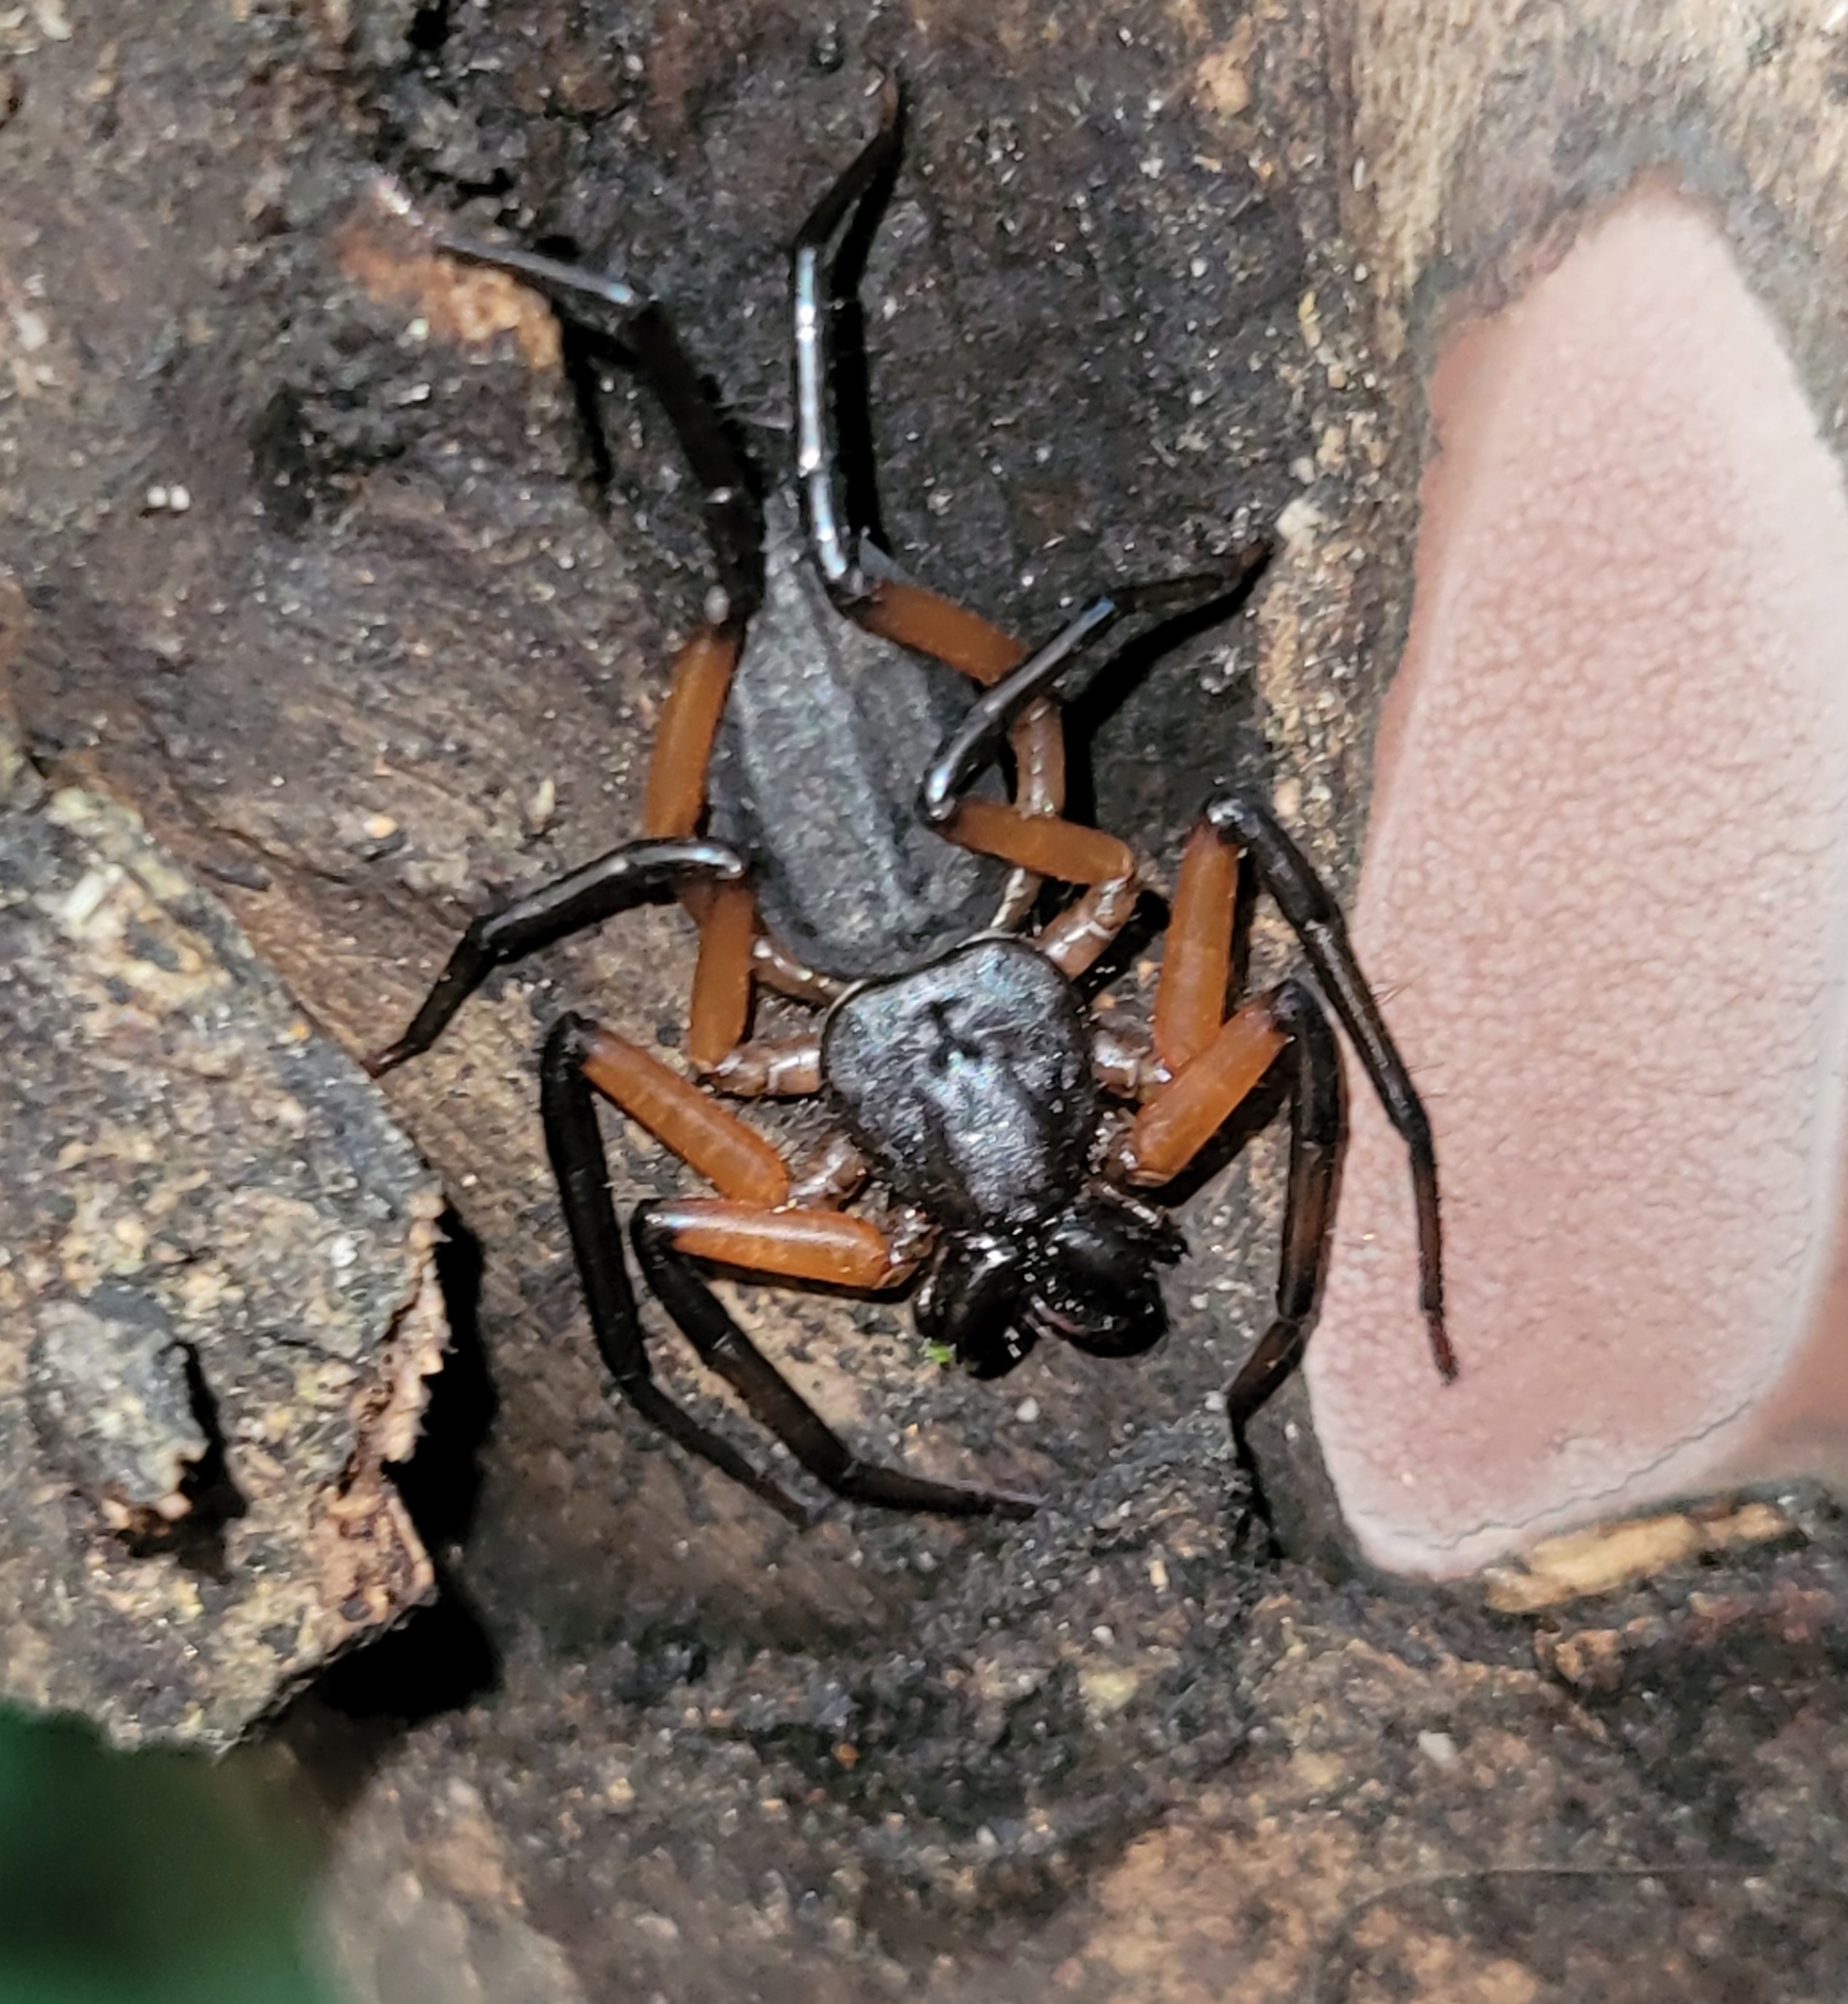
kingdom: Animalia
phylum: Arthropoda
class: Arachnida
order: Araneae
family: Trochanteriidae
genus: Platyoides
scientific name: Platyoides walteri
